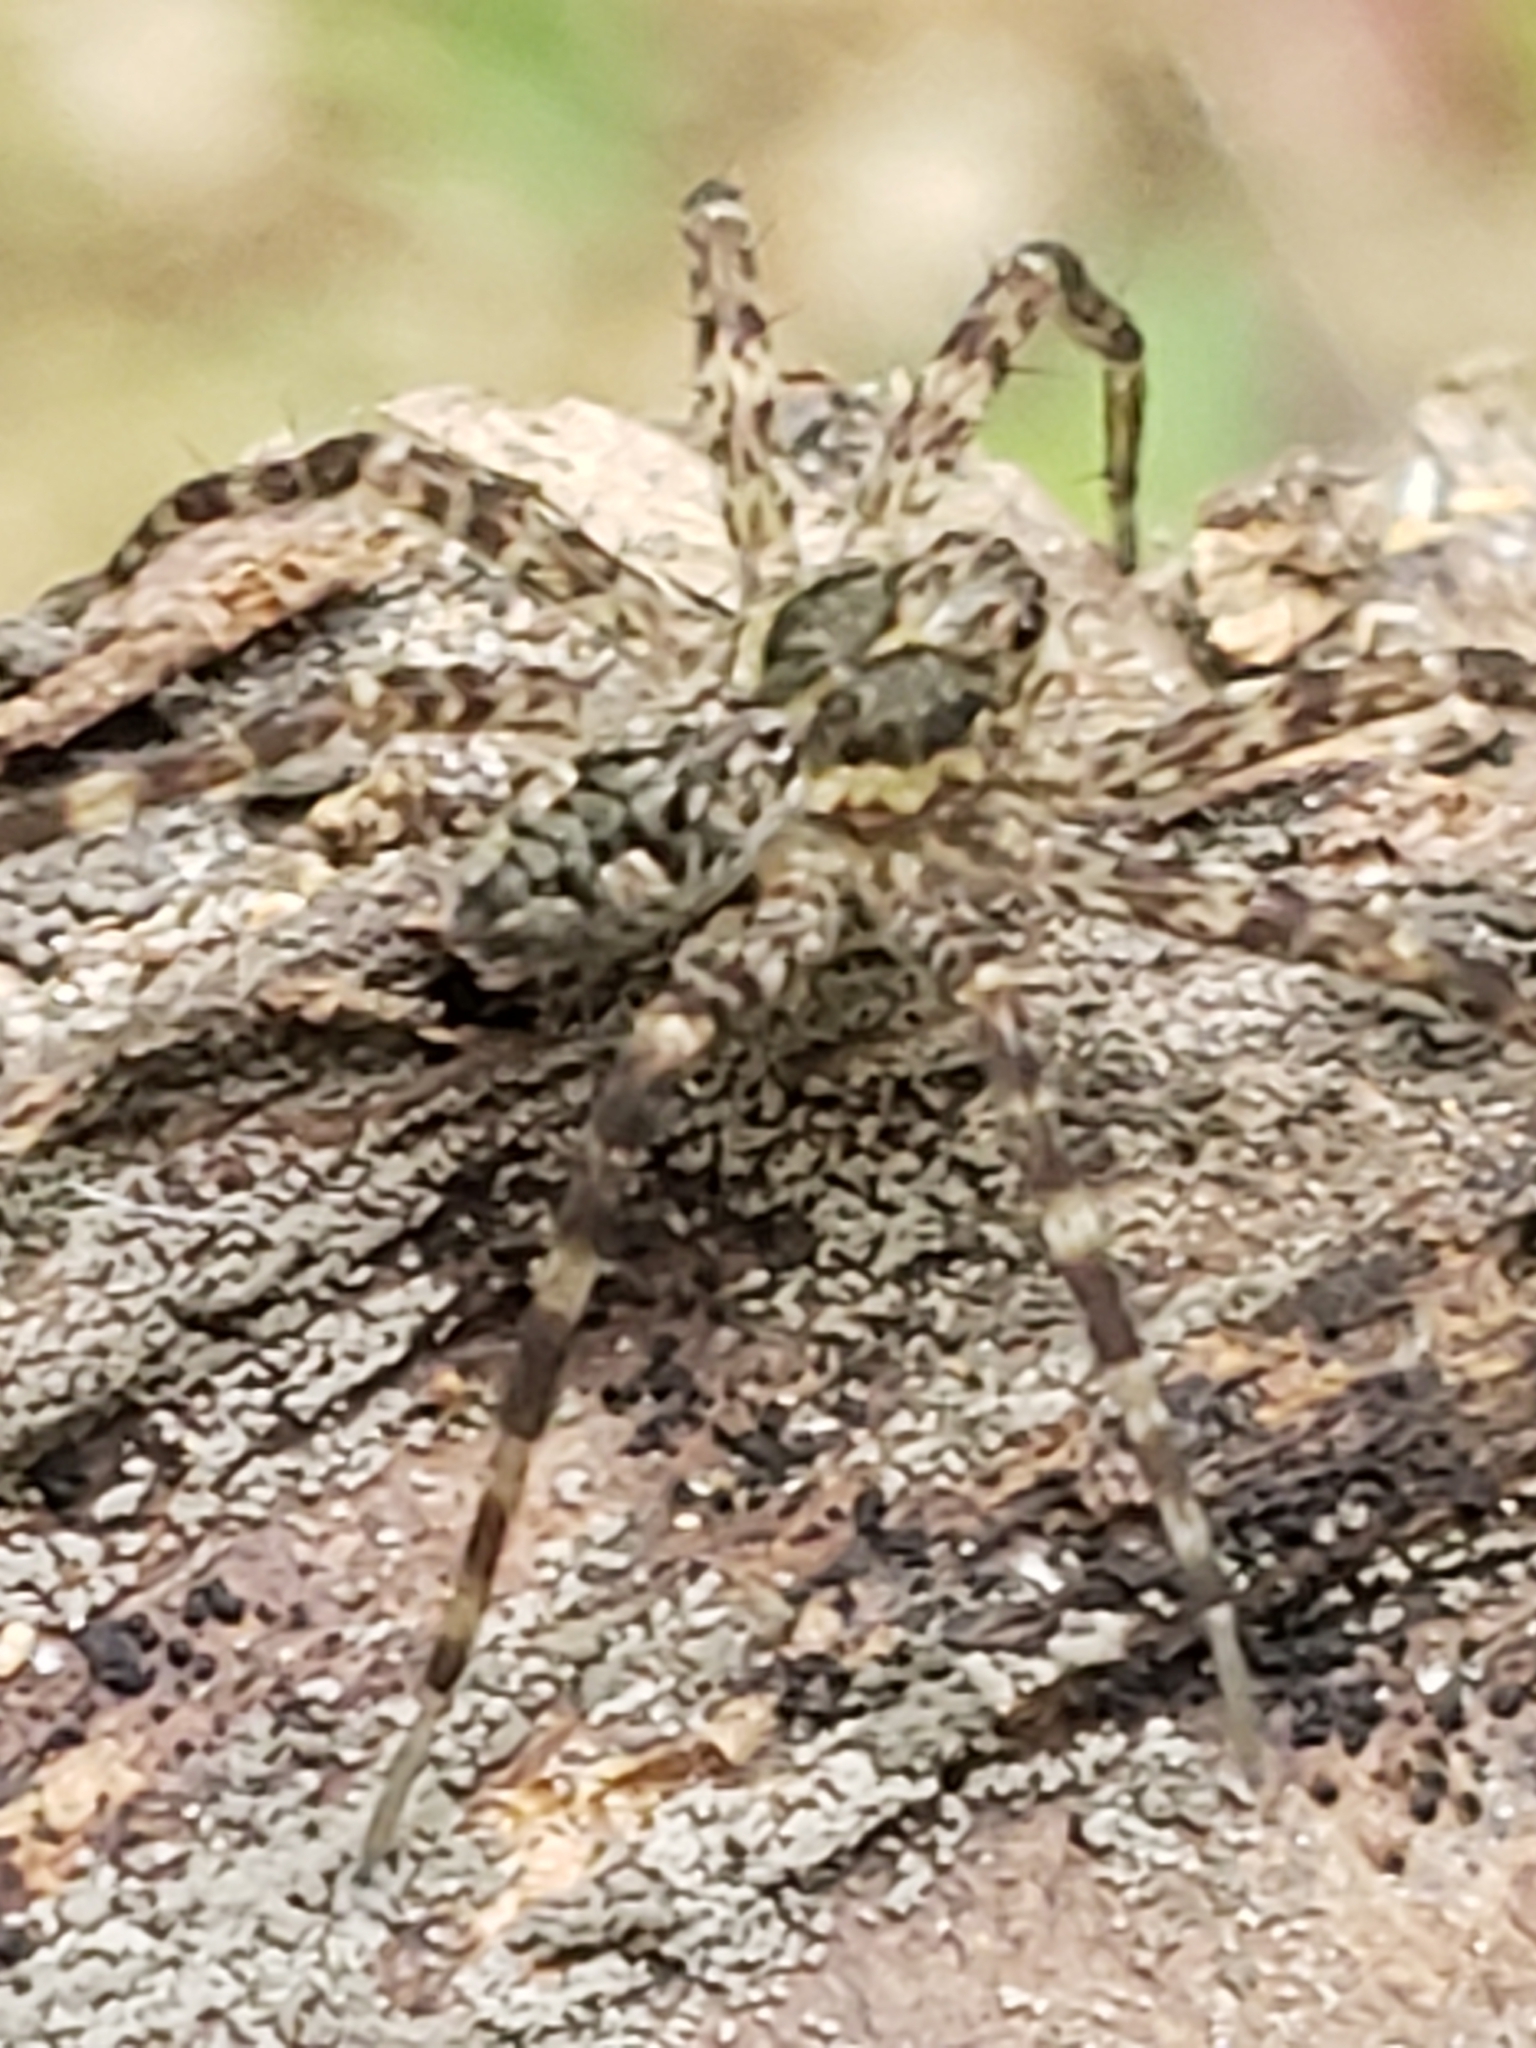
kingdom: Animalia
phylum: Arthropoda
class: Arachnida
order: Araneae
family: Pisauridae
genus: Dolomedes
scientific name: Dolomedes tenebrosus
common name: Dark fishing spider
